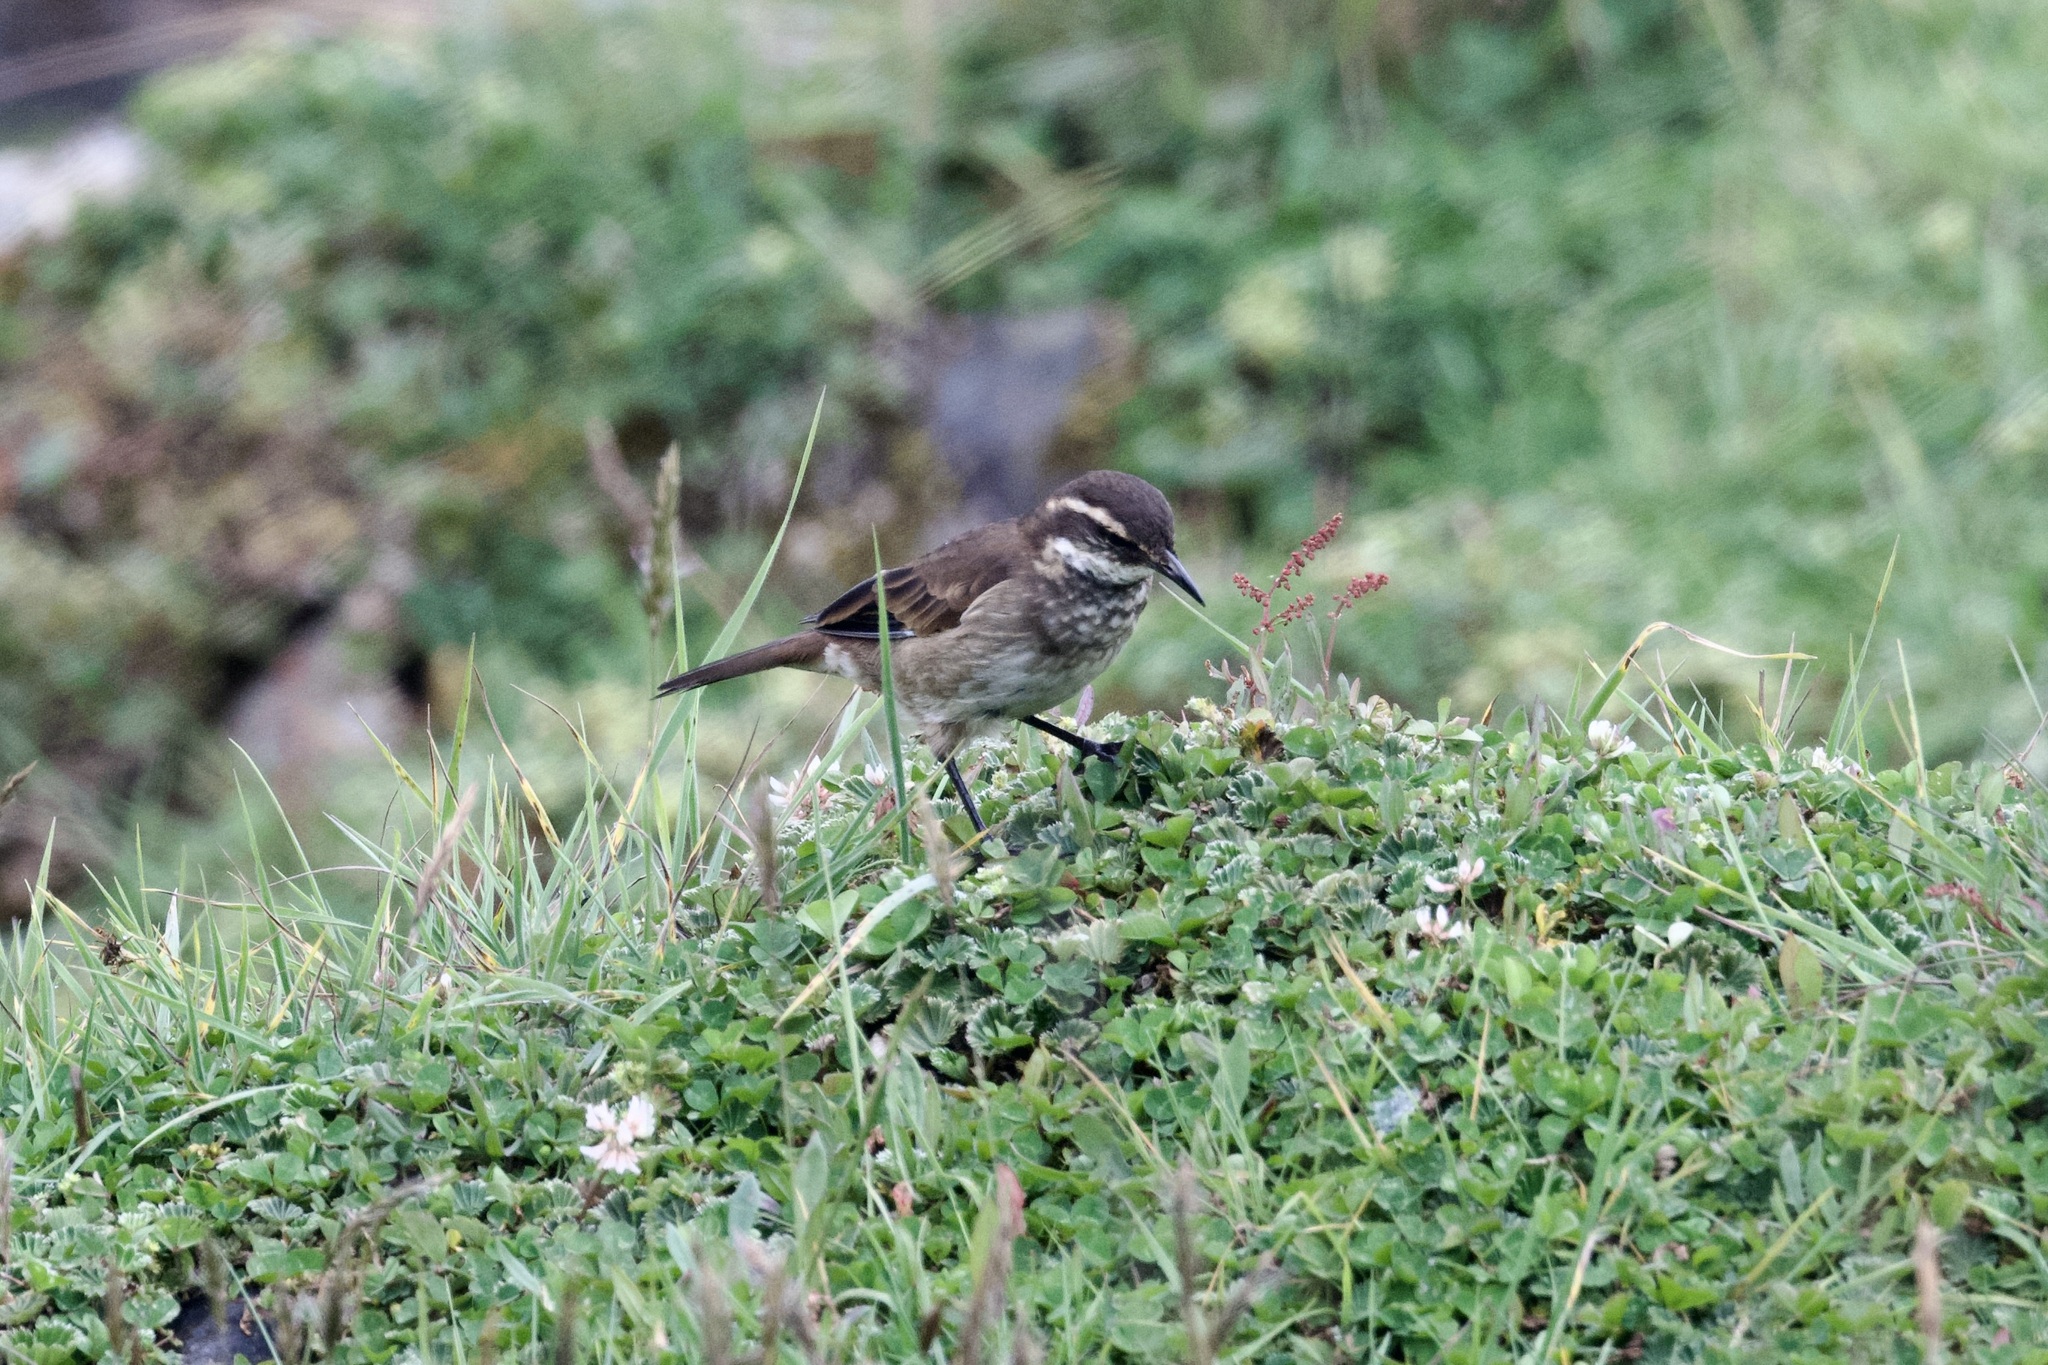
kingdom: Animalia
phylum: Chordata
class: Aves
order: Passeriformes
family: Furnariidae
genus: Cinclodes
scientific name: Cinclodes albidiventris
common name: Chestnut-winged cinclodes
